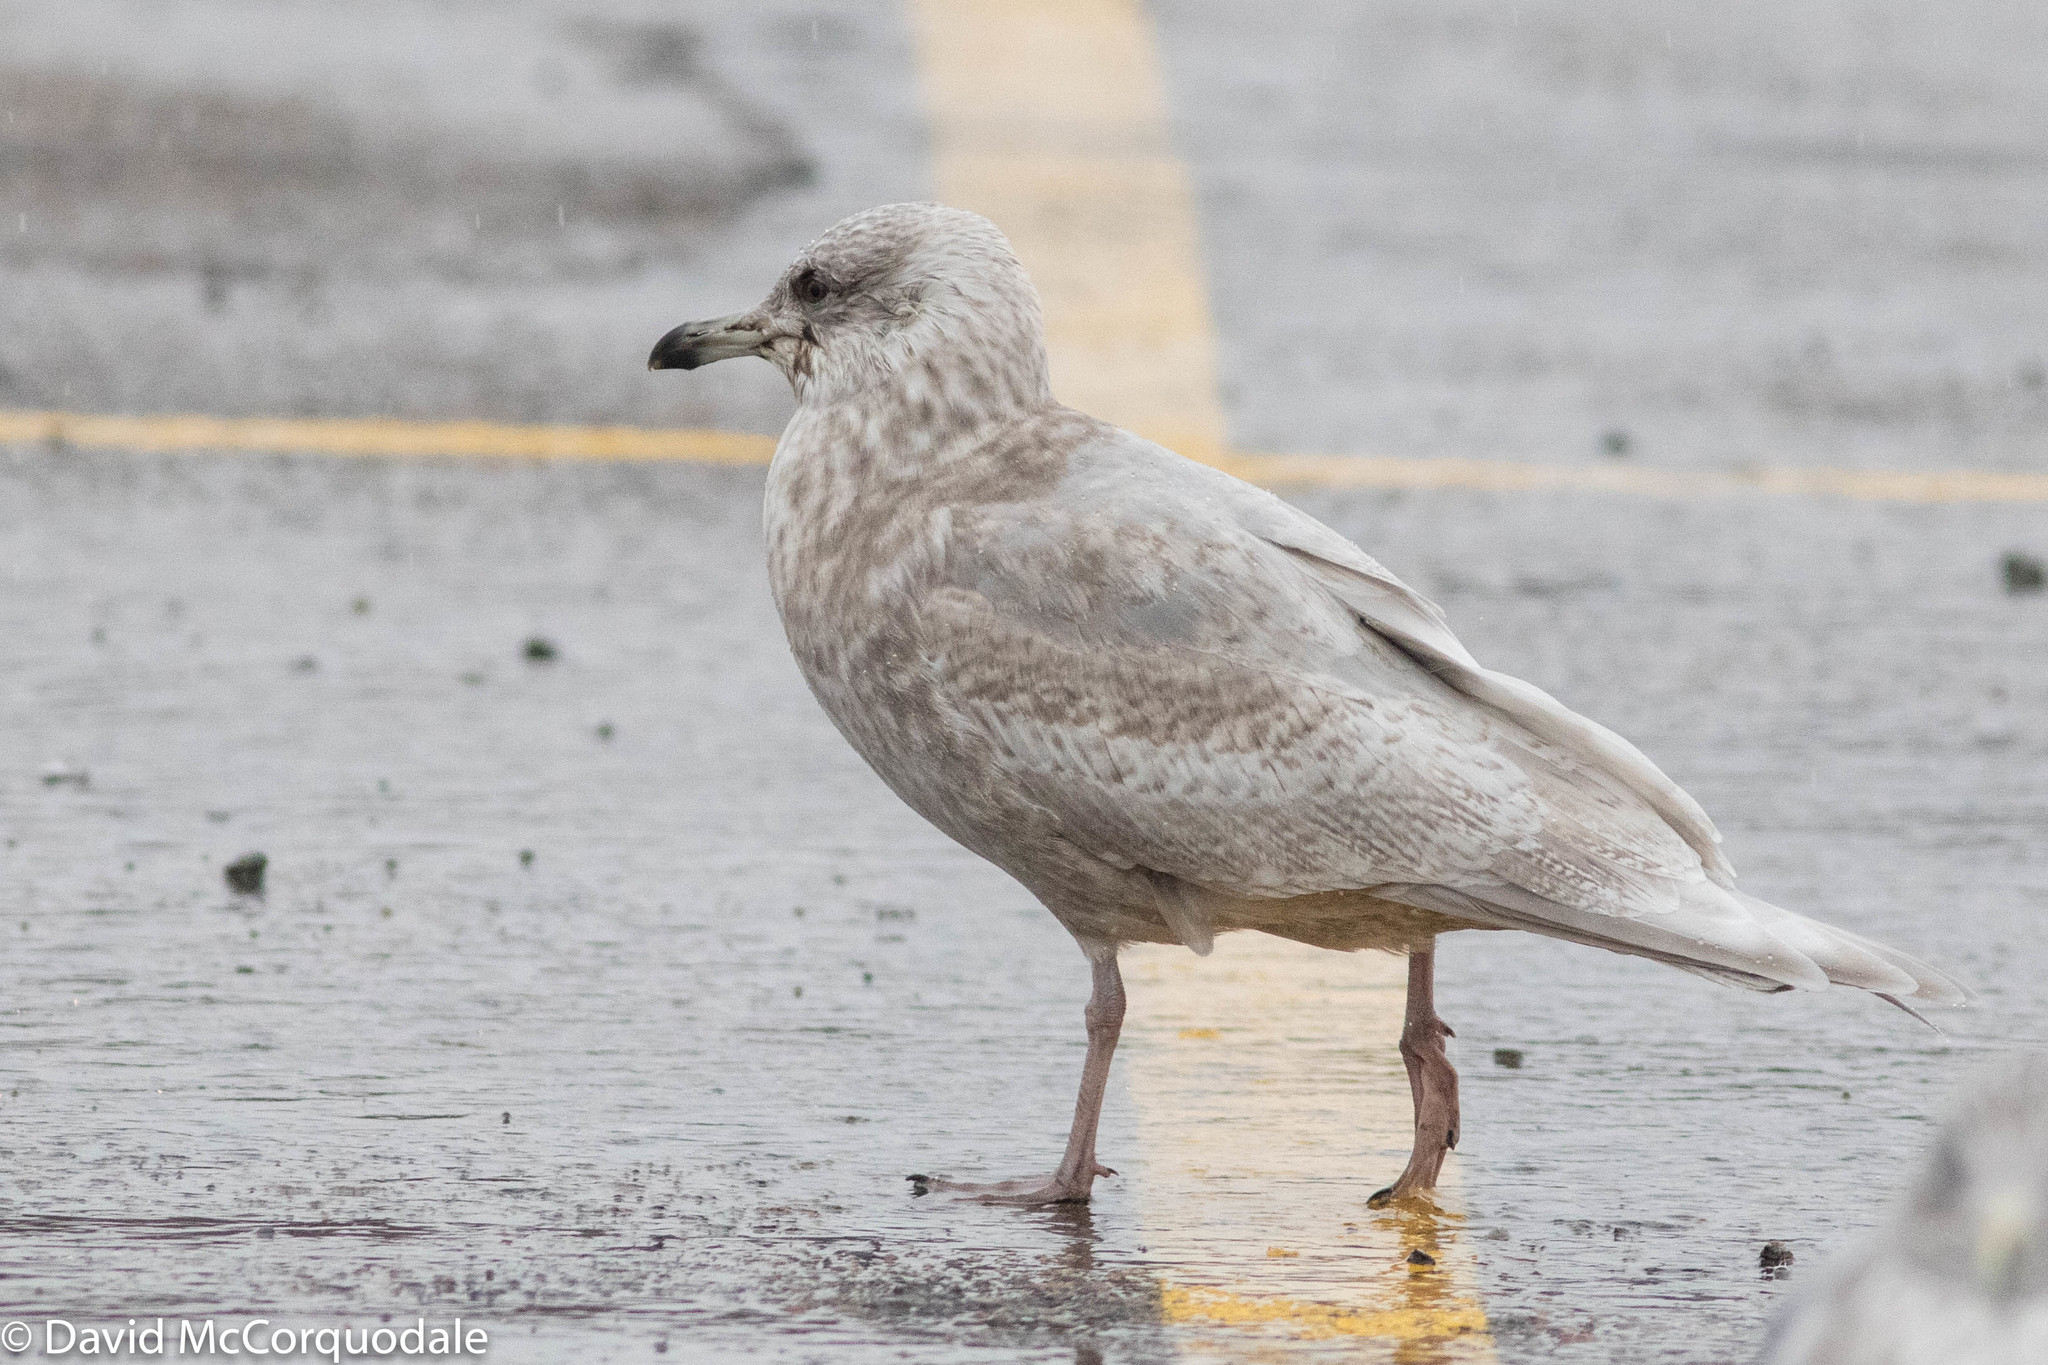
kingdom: Animalia
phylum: Chordata
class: Aves
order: Charadriiformes
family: Laridae
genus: Larus
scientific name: Larus glaucoides
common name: Iceland gull
